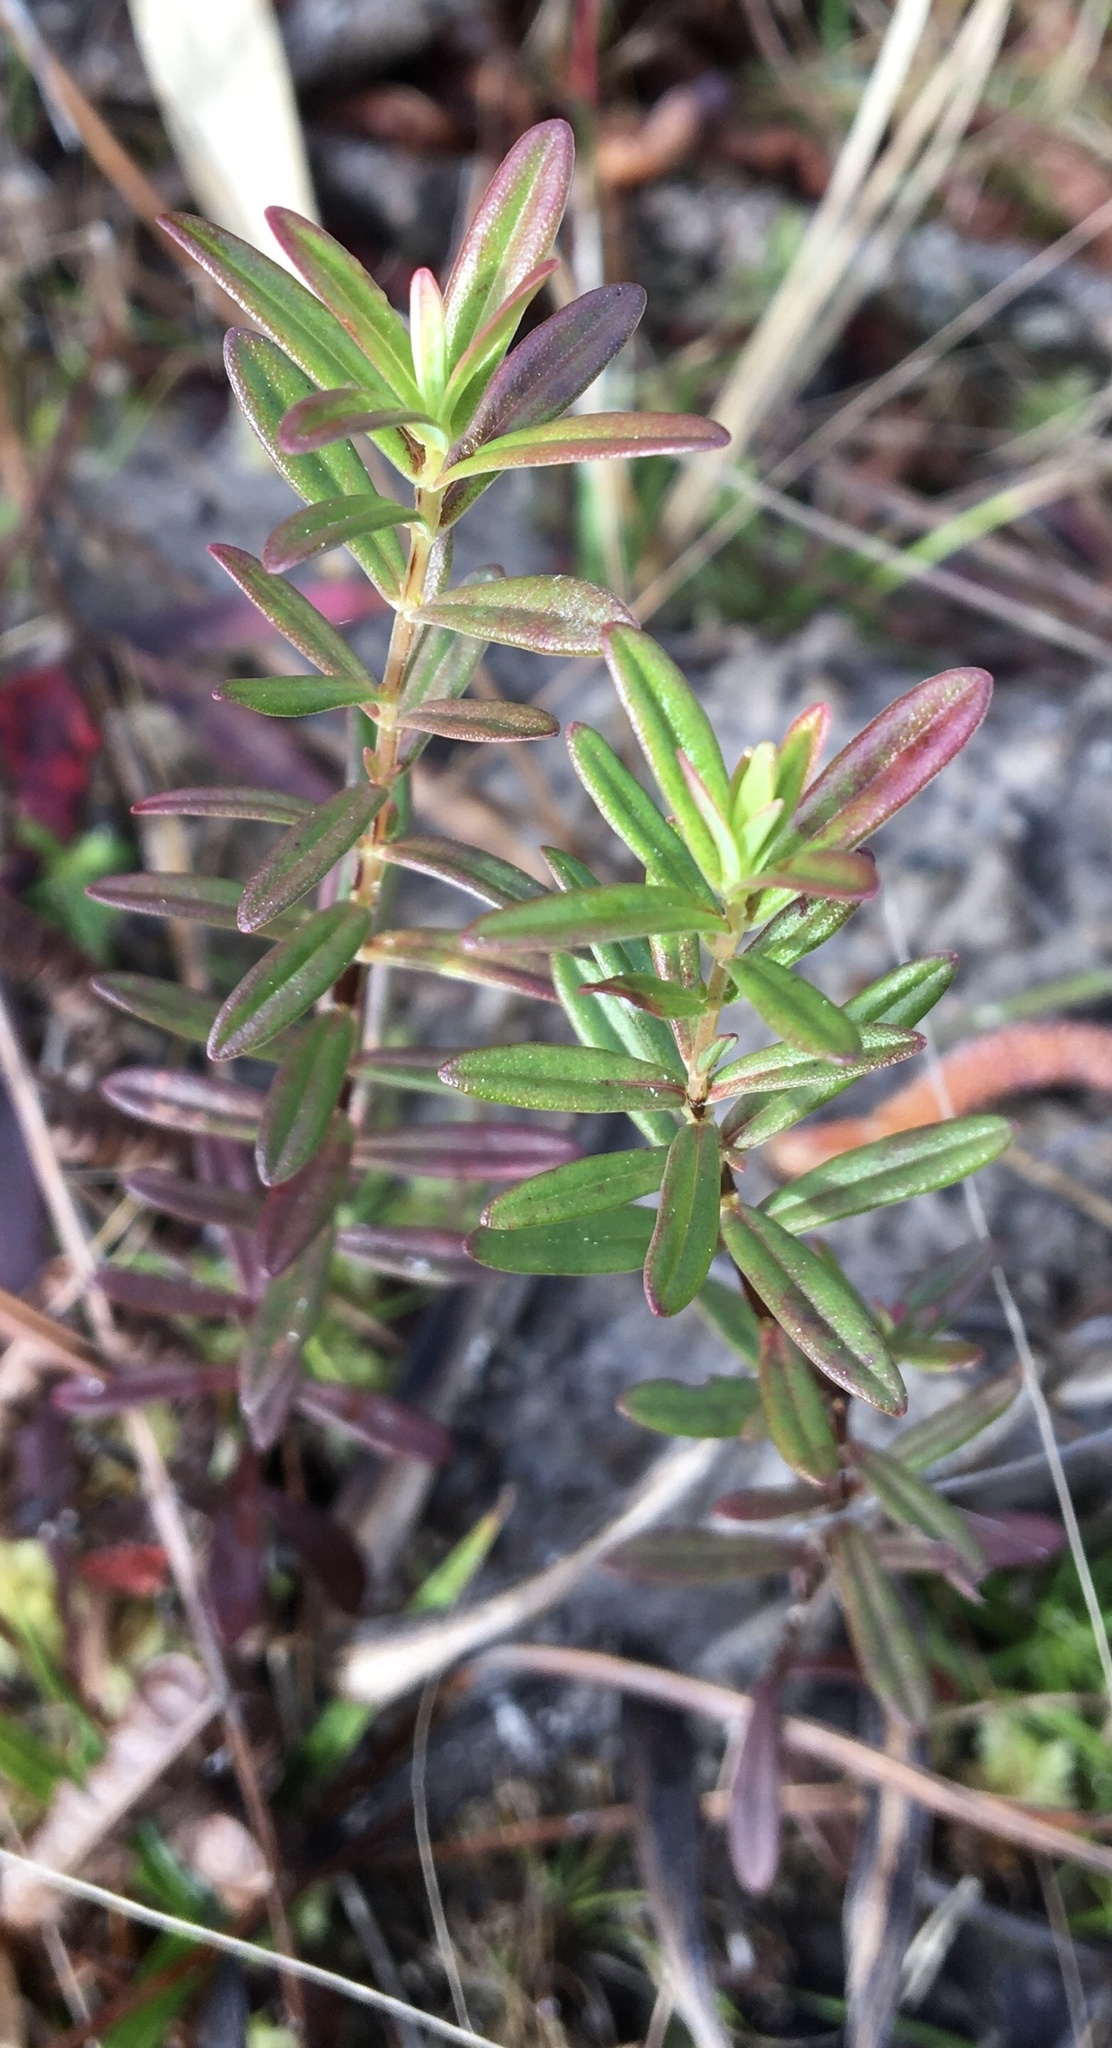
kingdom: Plantae
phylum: Tracheophyta
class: Magnoliopsida
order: Malpighiales
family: Hypericaceae
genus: Hypericum
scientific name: Hypericum cistifolium
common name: Round-pod st. john's-wort
